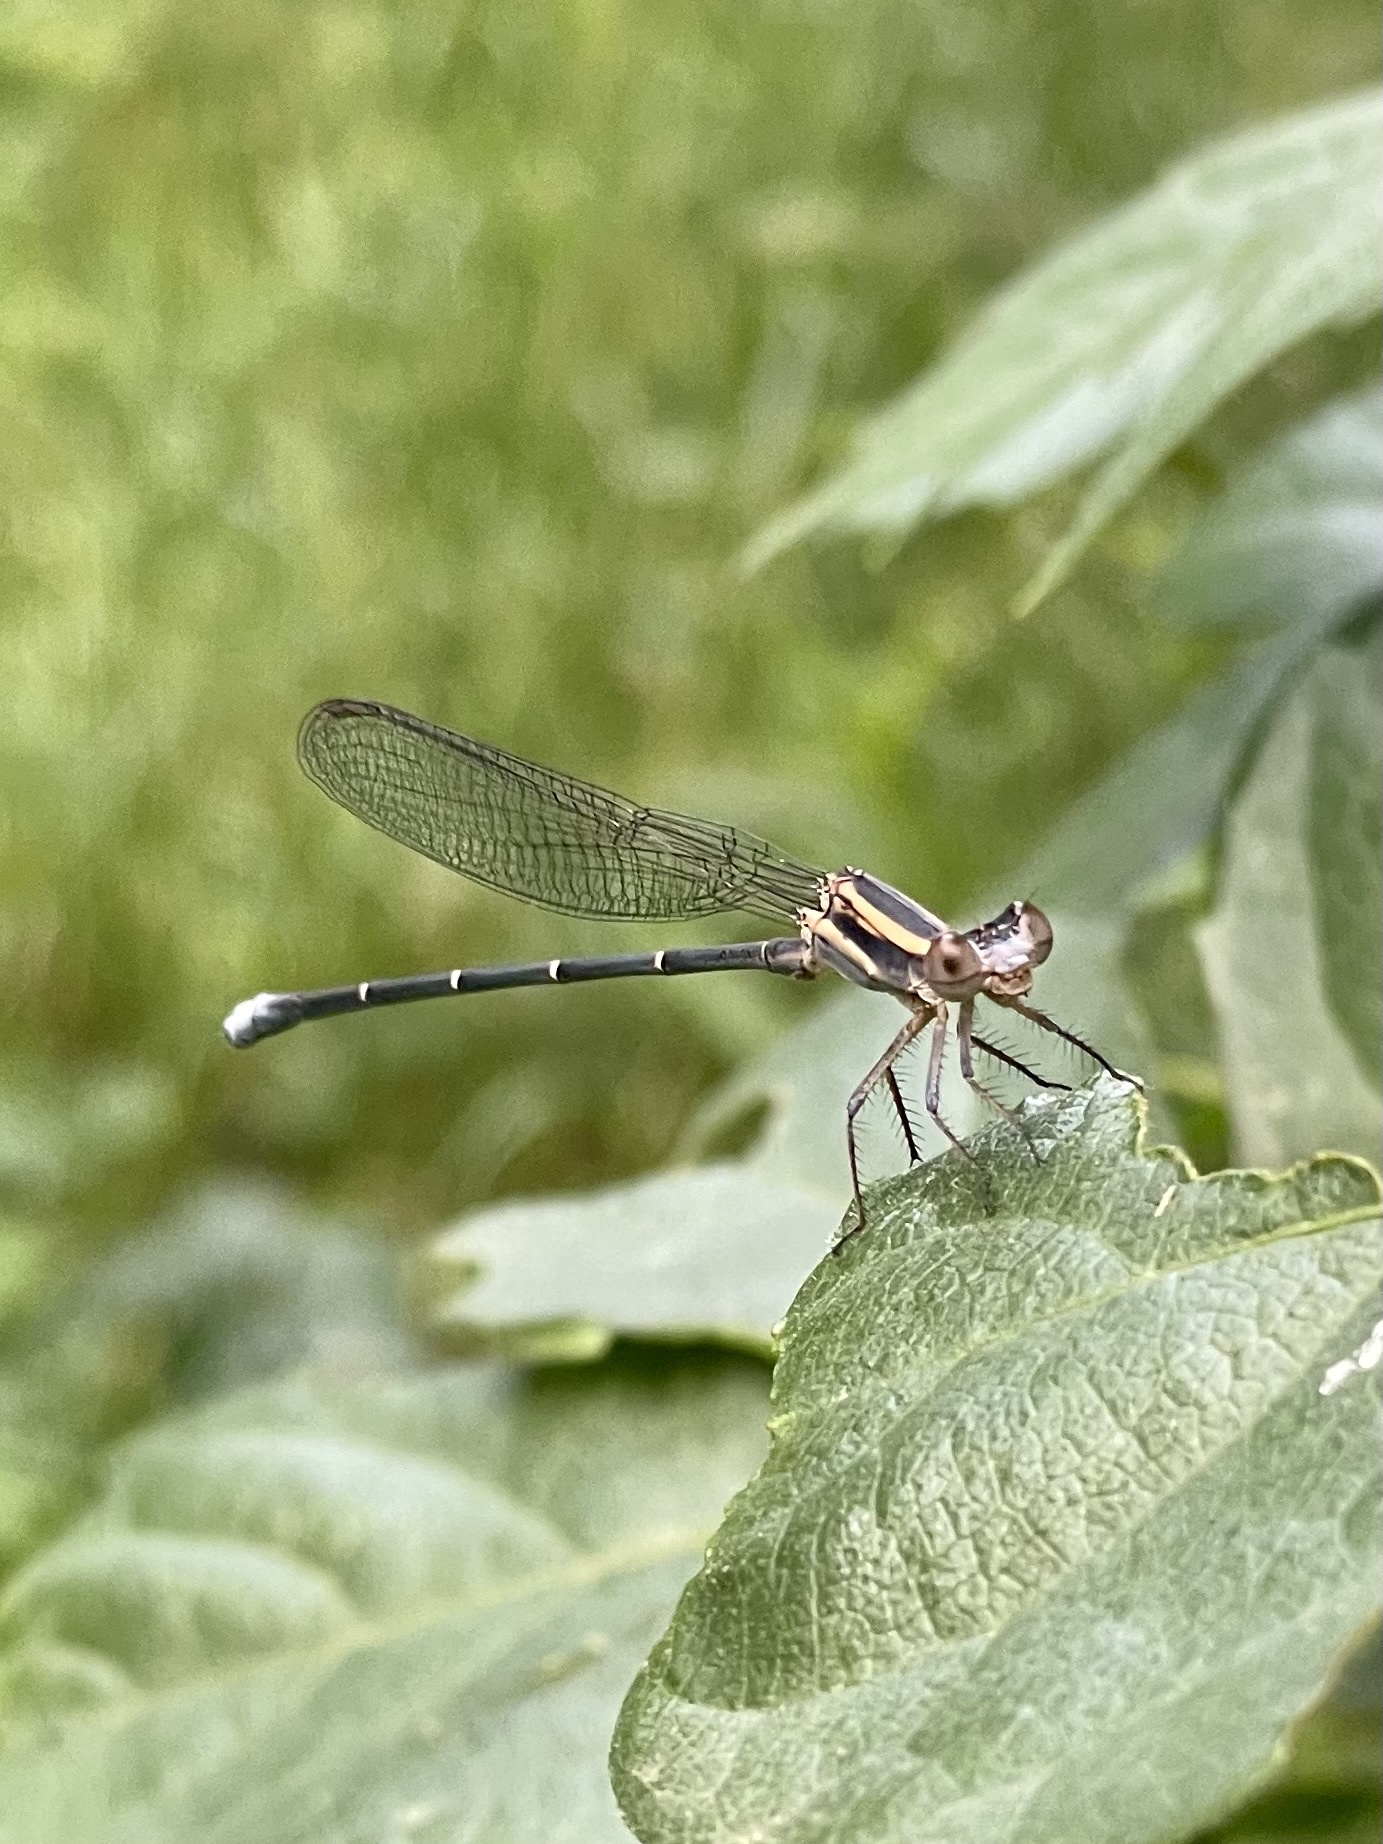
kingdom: Animalia
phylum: Arthropoda
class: Insecta
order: Odonata
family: Coenagrionidae
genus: Argia
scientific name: Argia moesta
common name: Powdered dancer
